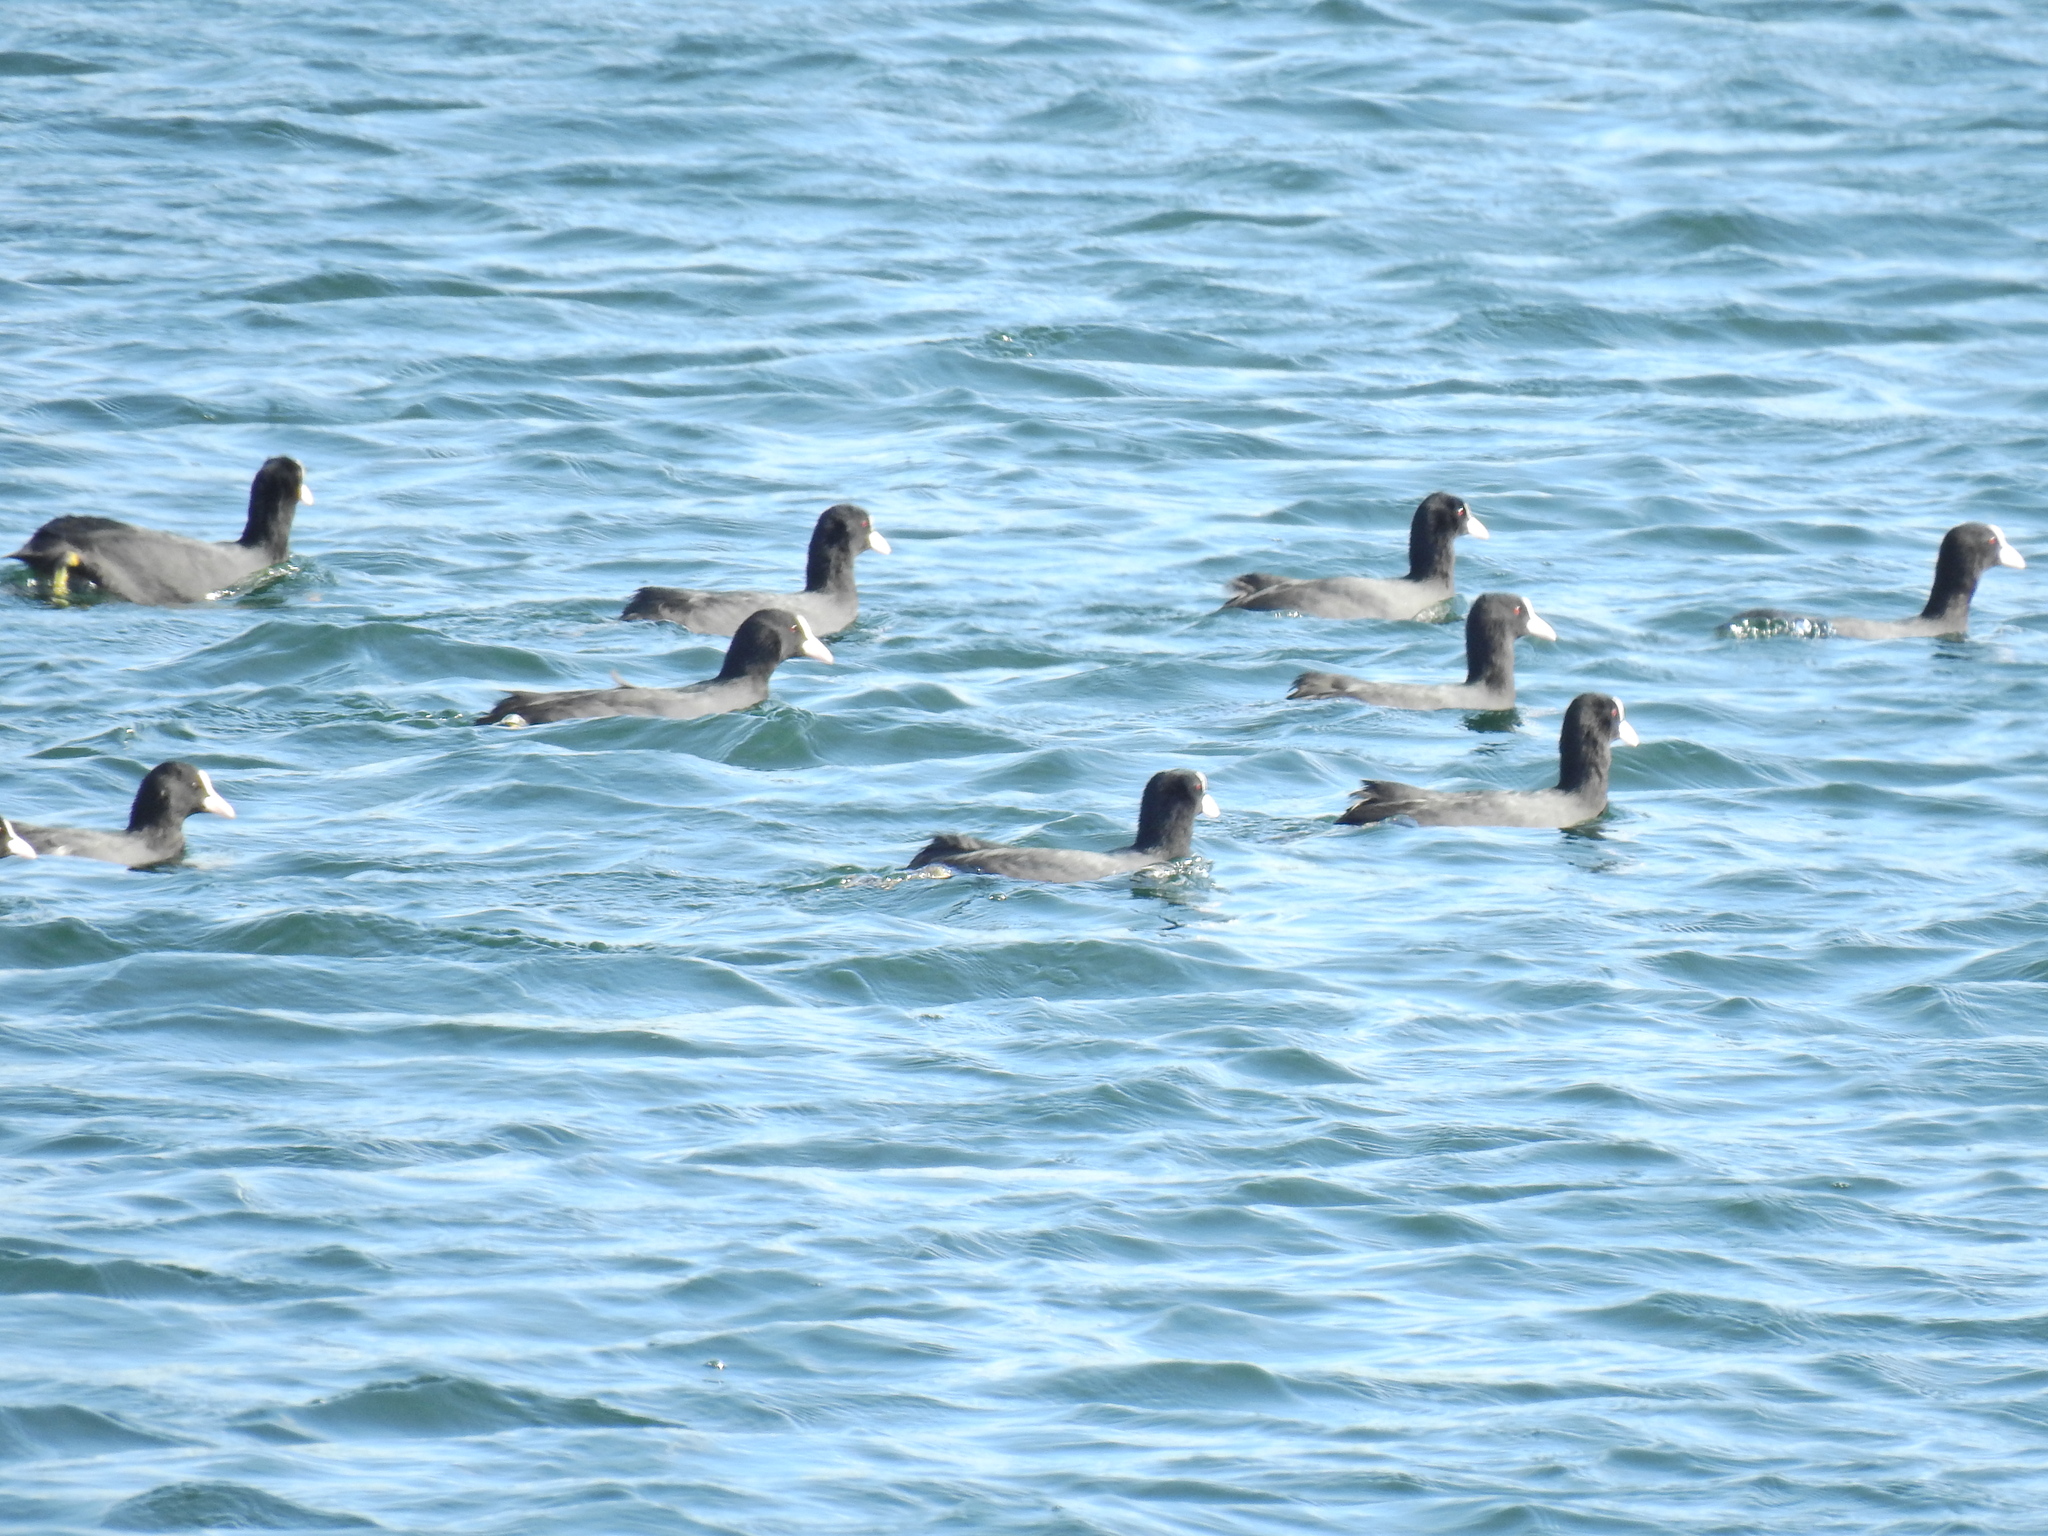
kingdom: Animalia
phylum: Chordata
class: Aves
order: Gruiformes
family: Rallidae
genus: Fulica
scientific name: Fulica atra
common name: Eurasian coot
